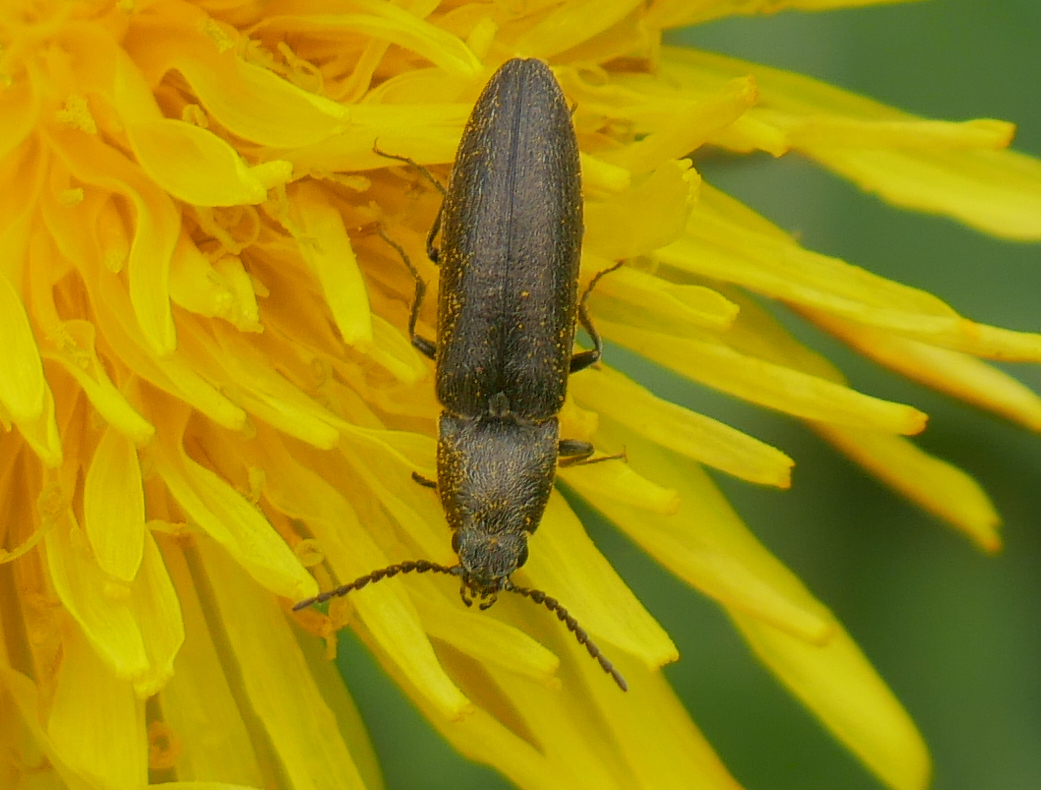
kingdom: Animalia
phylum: Arthropoda
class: Insecta
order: Coleoptera
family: Elateridae
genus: Cidnopus
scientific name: Cidnopus aeruginosus
